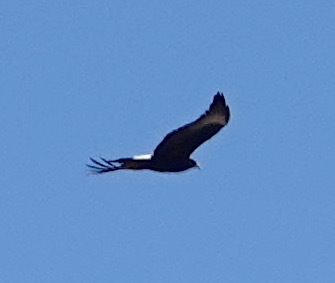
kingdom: Animalia
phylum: Chordata
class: Aves
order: Accipitriformes
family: Accipitridae
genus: Aquila
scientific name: Aquila verreauxii
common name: Verreaux's eagle
